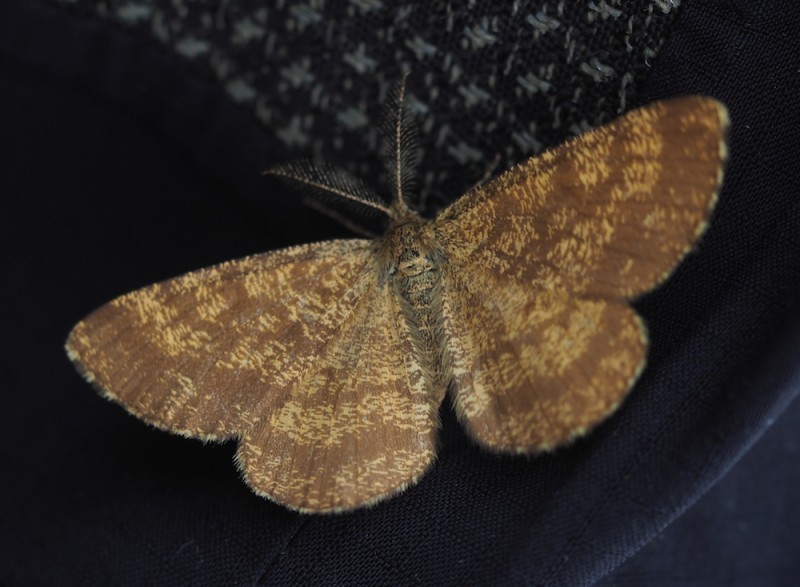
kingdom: Animalia
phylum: Arthropoda
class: Insecta
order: Lepidoptera
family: Geometridae
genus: Ematurga
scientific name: Ematurga atomaria
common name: Common heath
